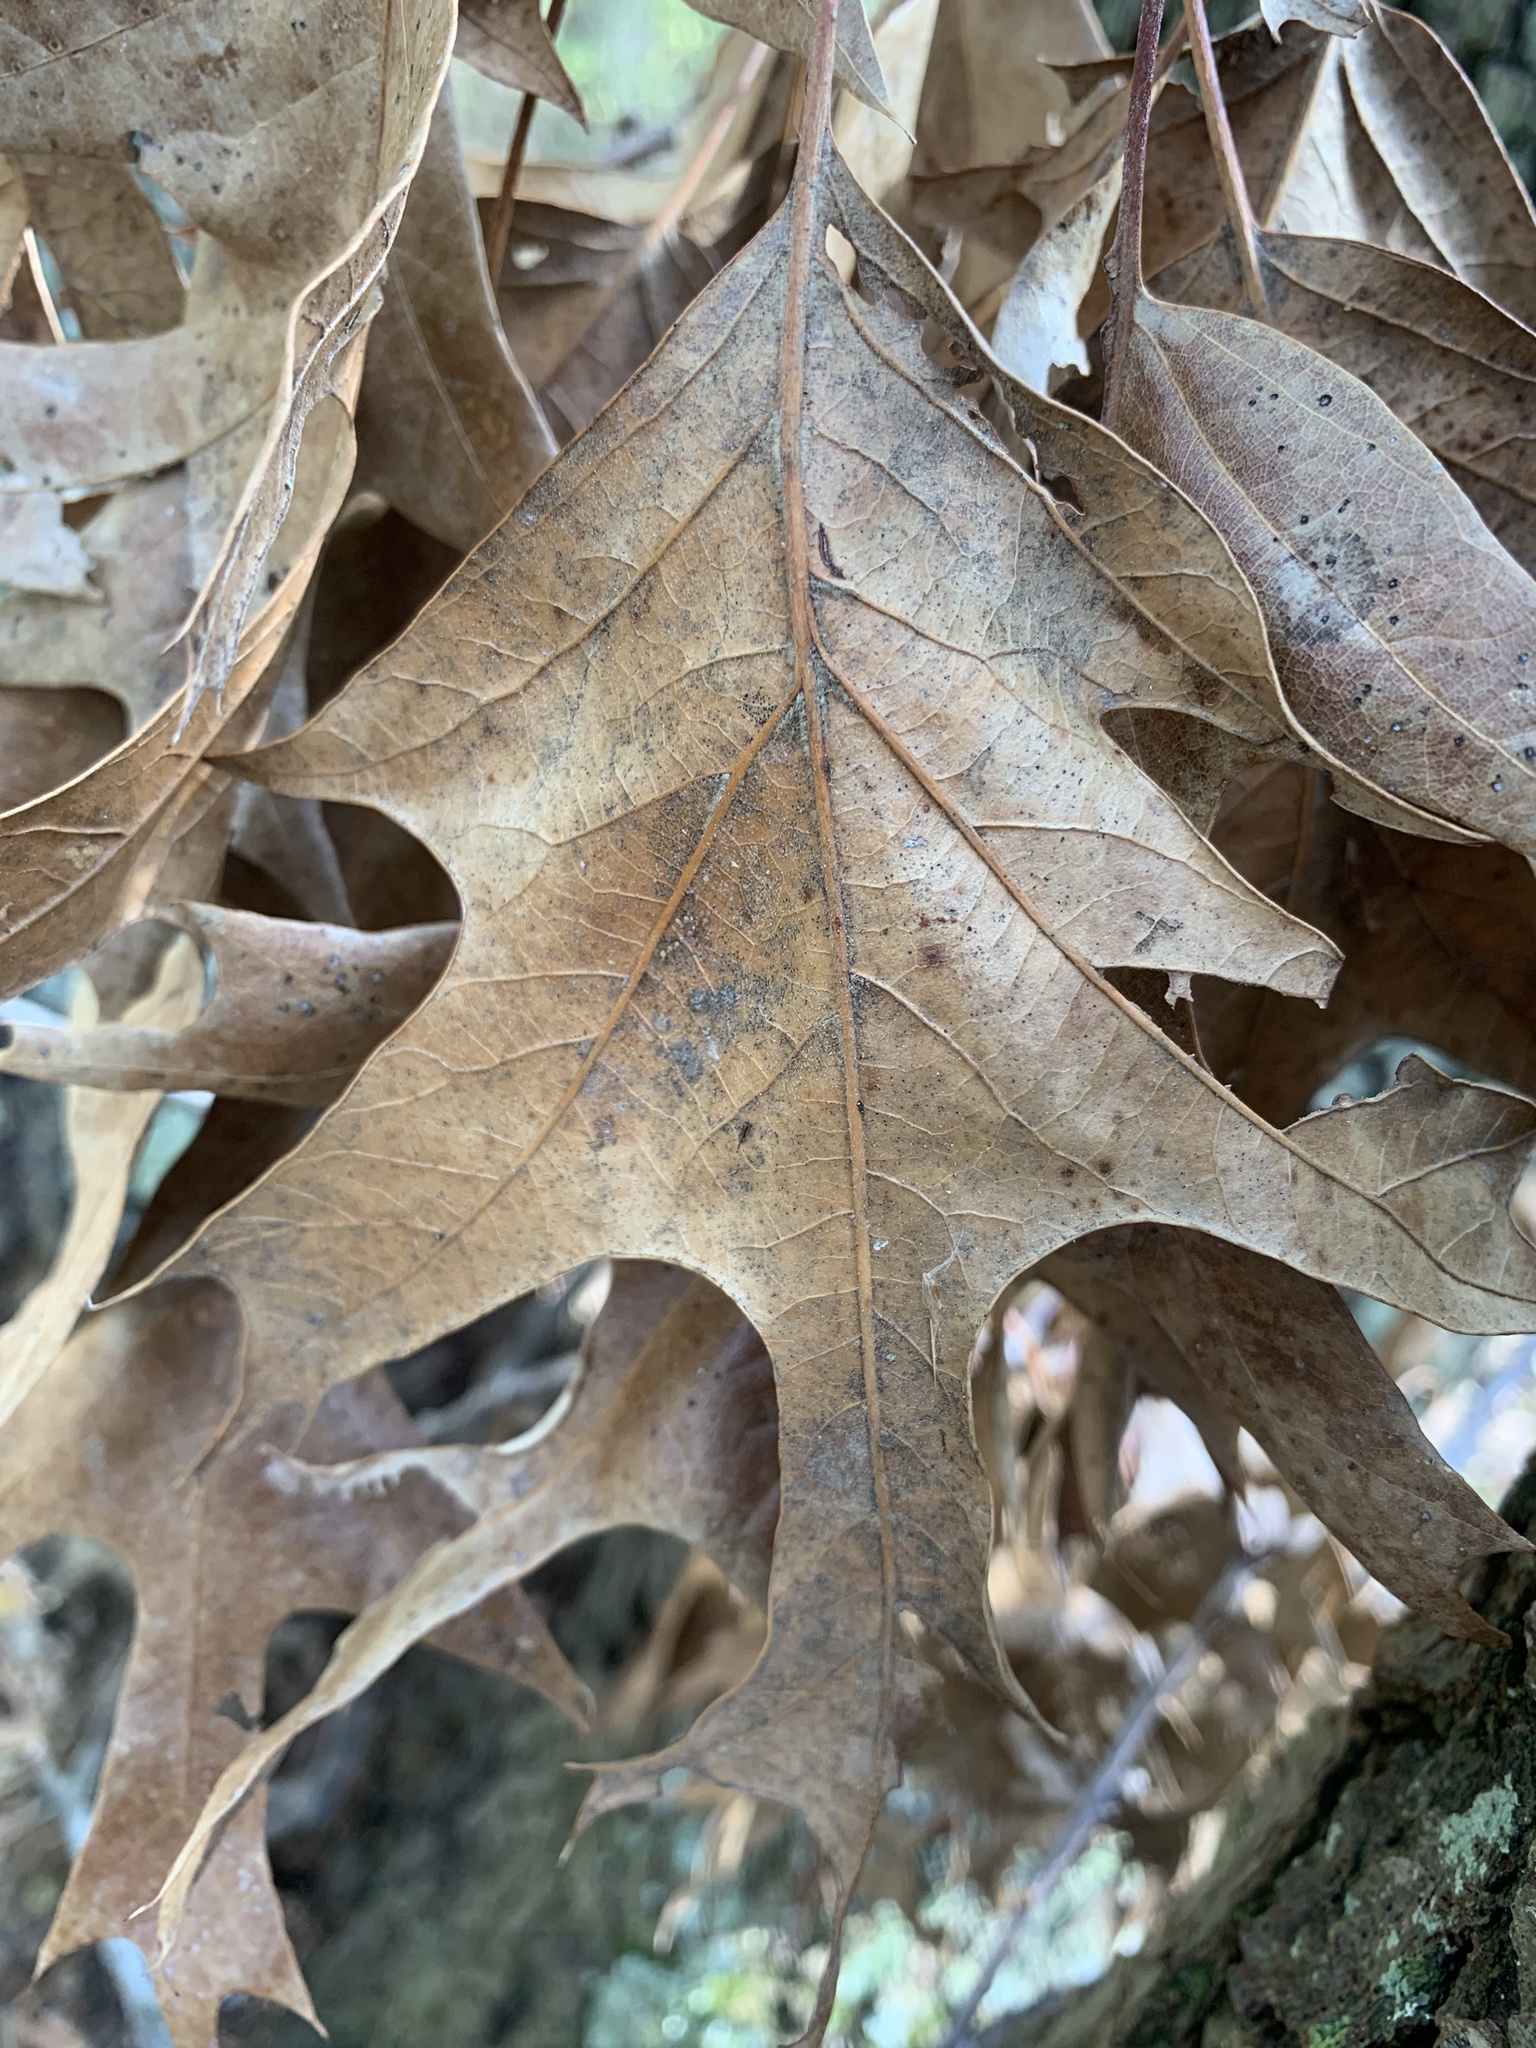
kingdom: Plantae
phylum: Tracheophyta
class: Magnoliopsida
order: Fagales
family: Fagaceae
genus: Quercus
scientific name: Quercus falcata
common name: Southern red oak
